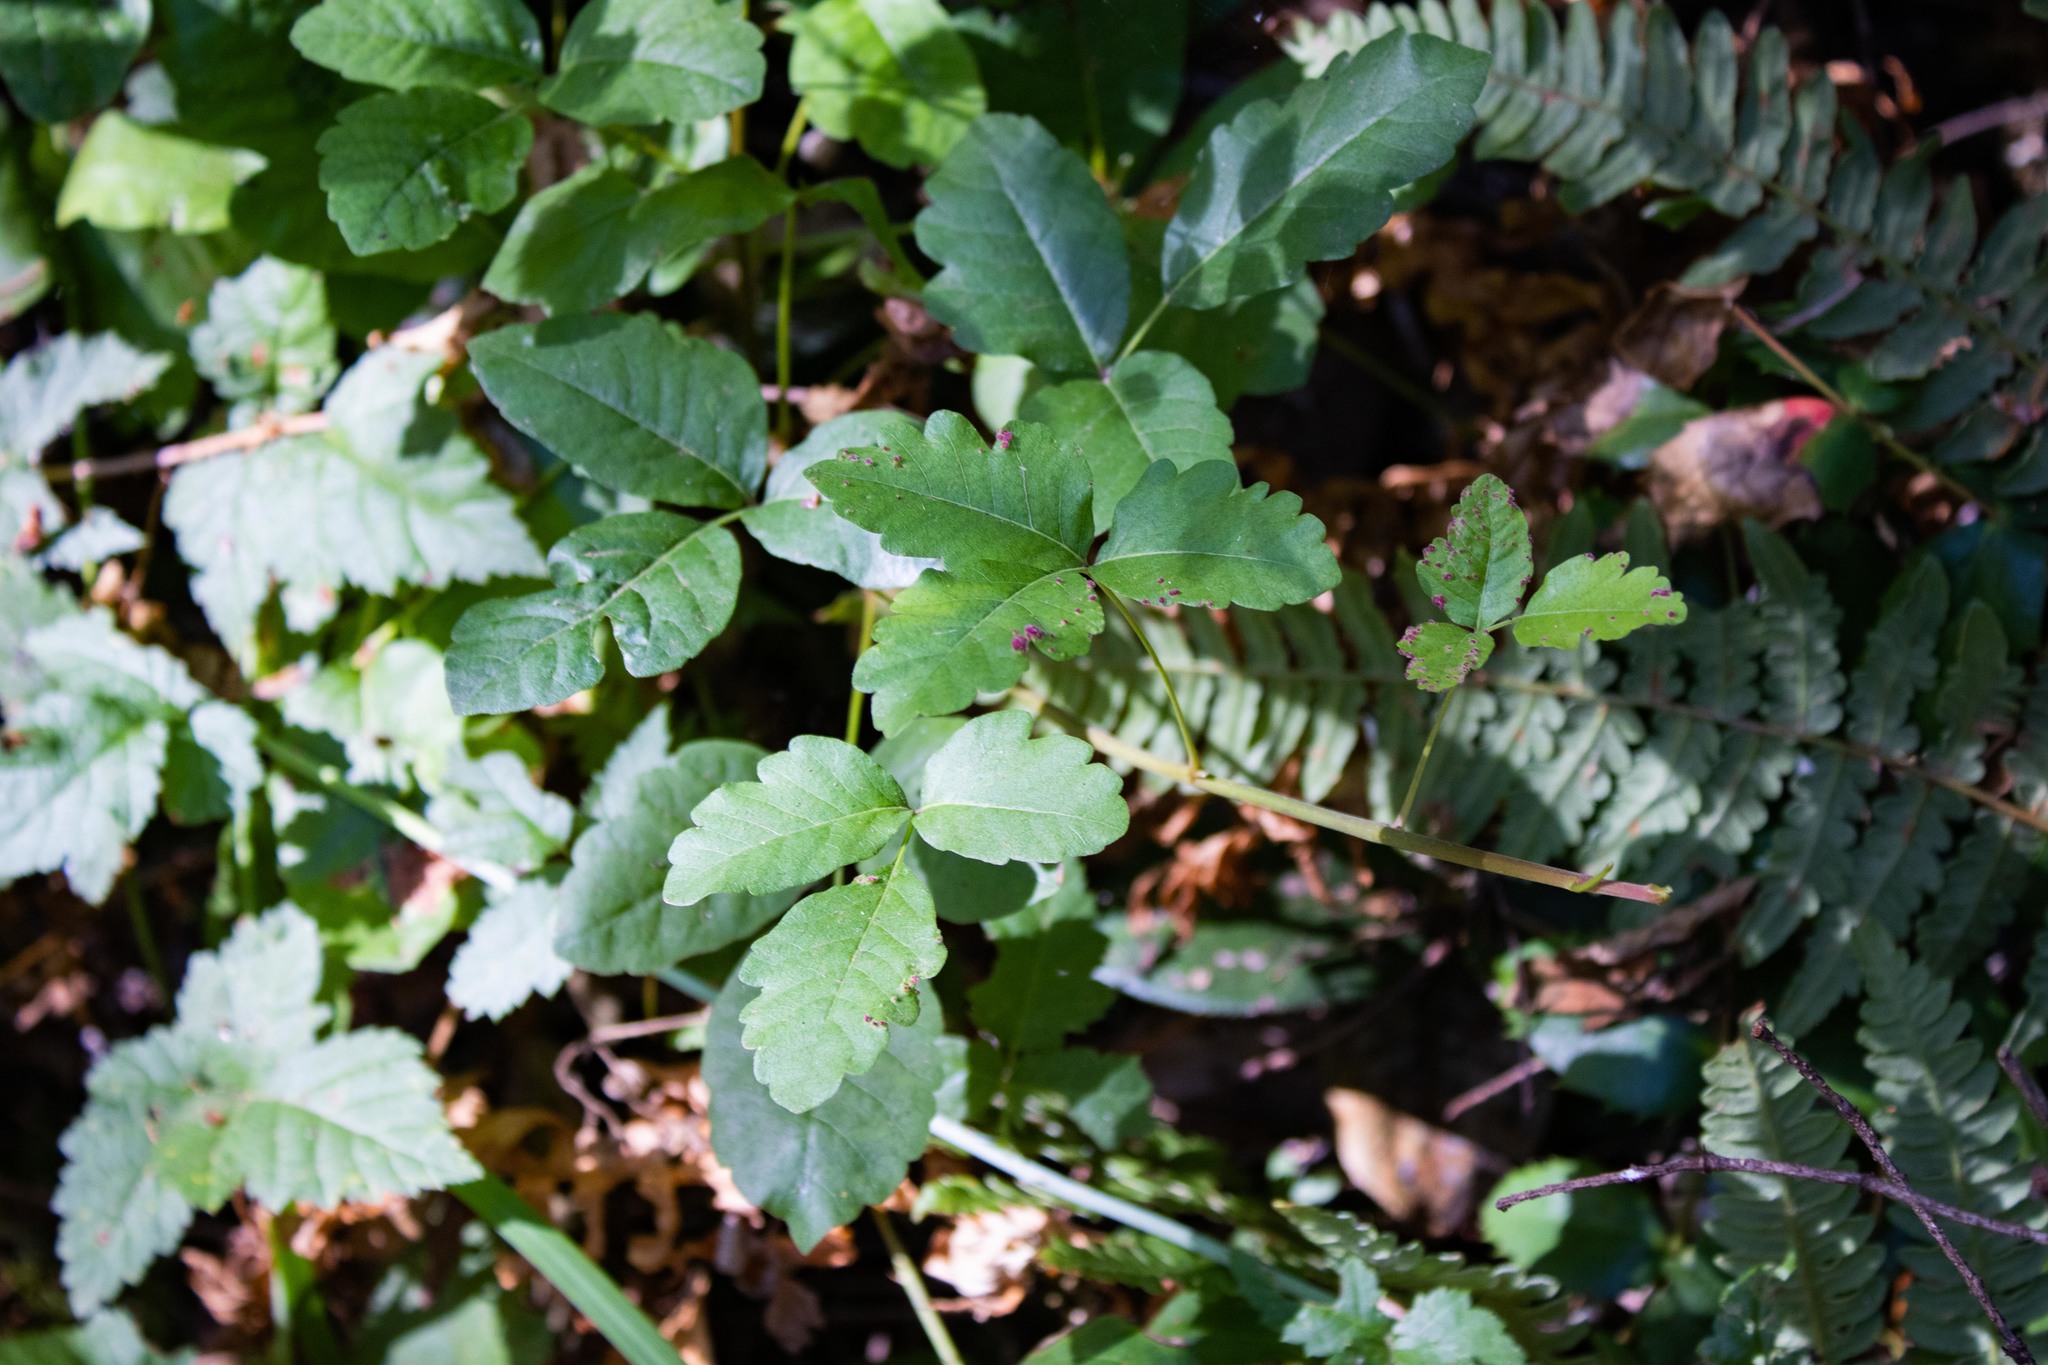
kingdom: Plantae
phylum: Tracheophyta
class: Magnoliopsida
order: Sapindales
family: Anacardiaceae
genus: Toxicodendron
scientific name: Toxicodendron diversilobum
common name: Pacific poison-oak
